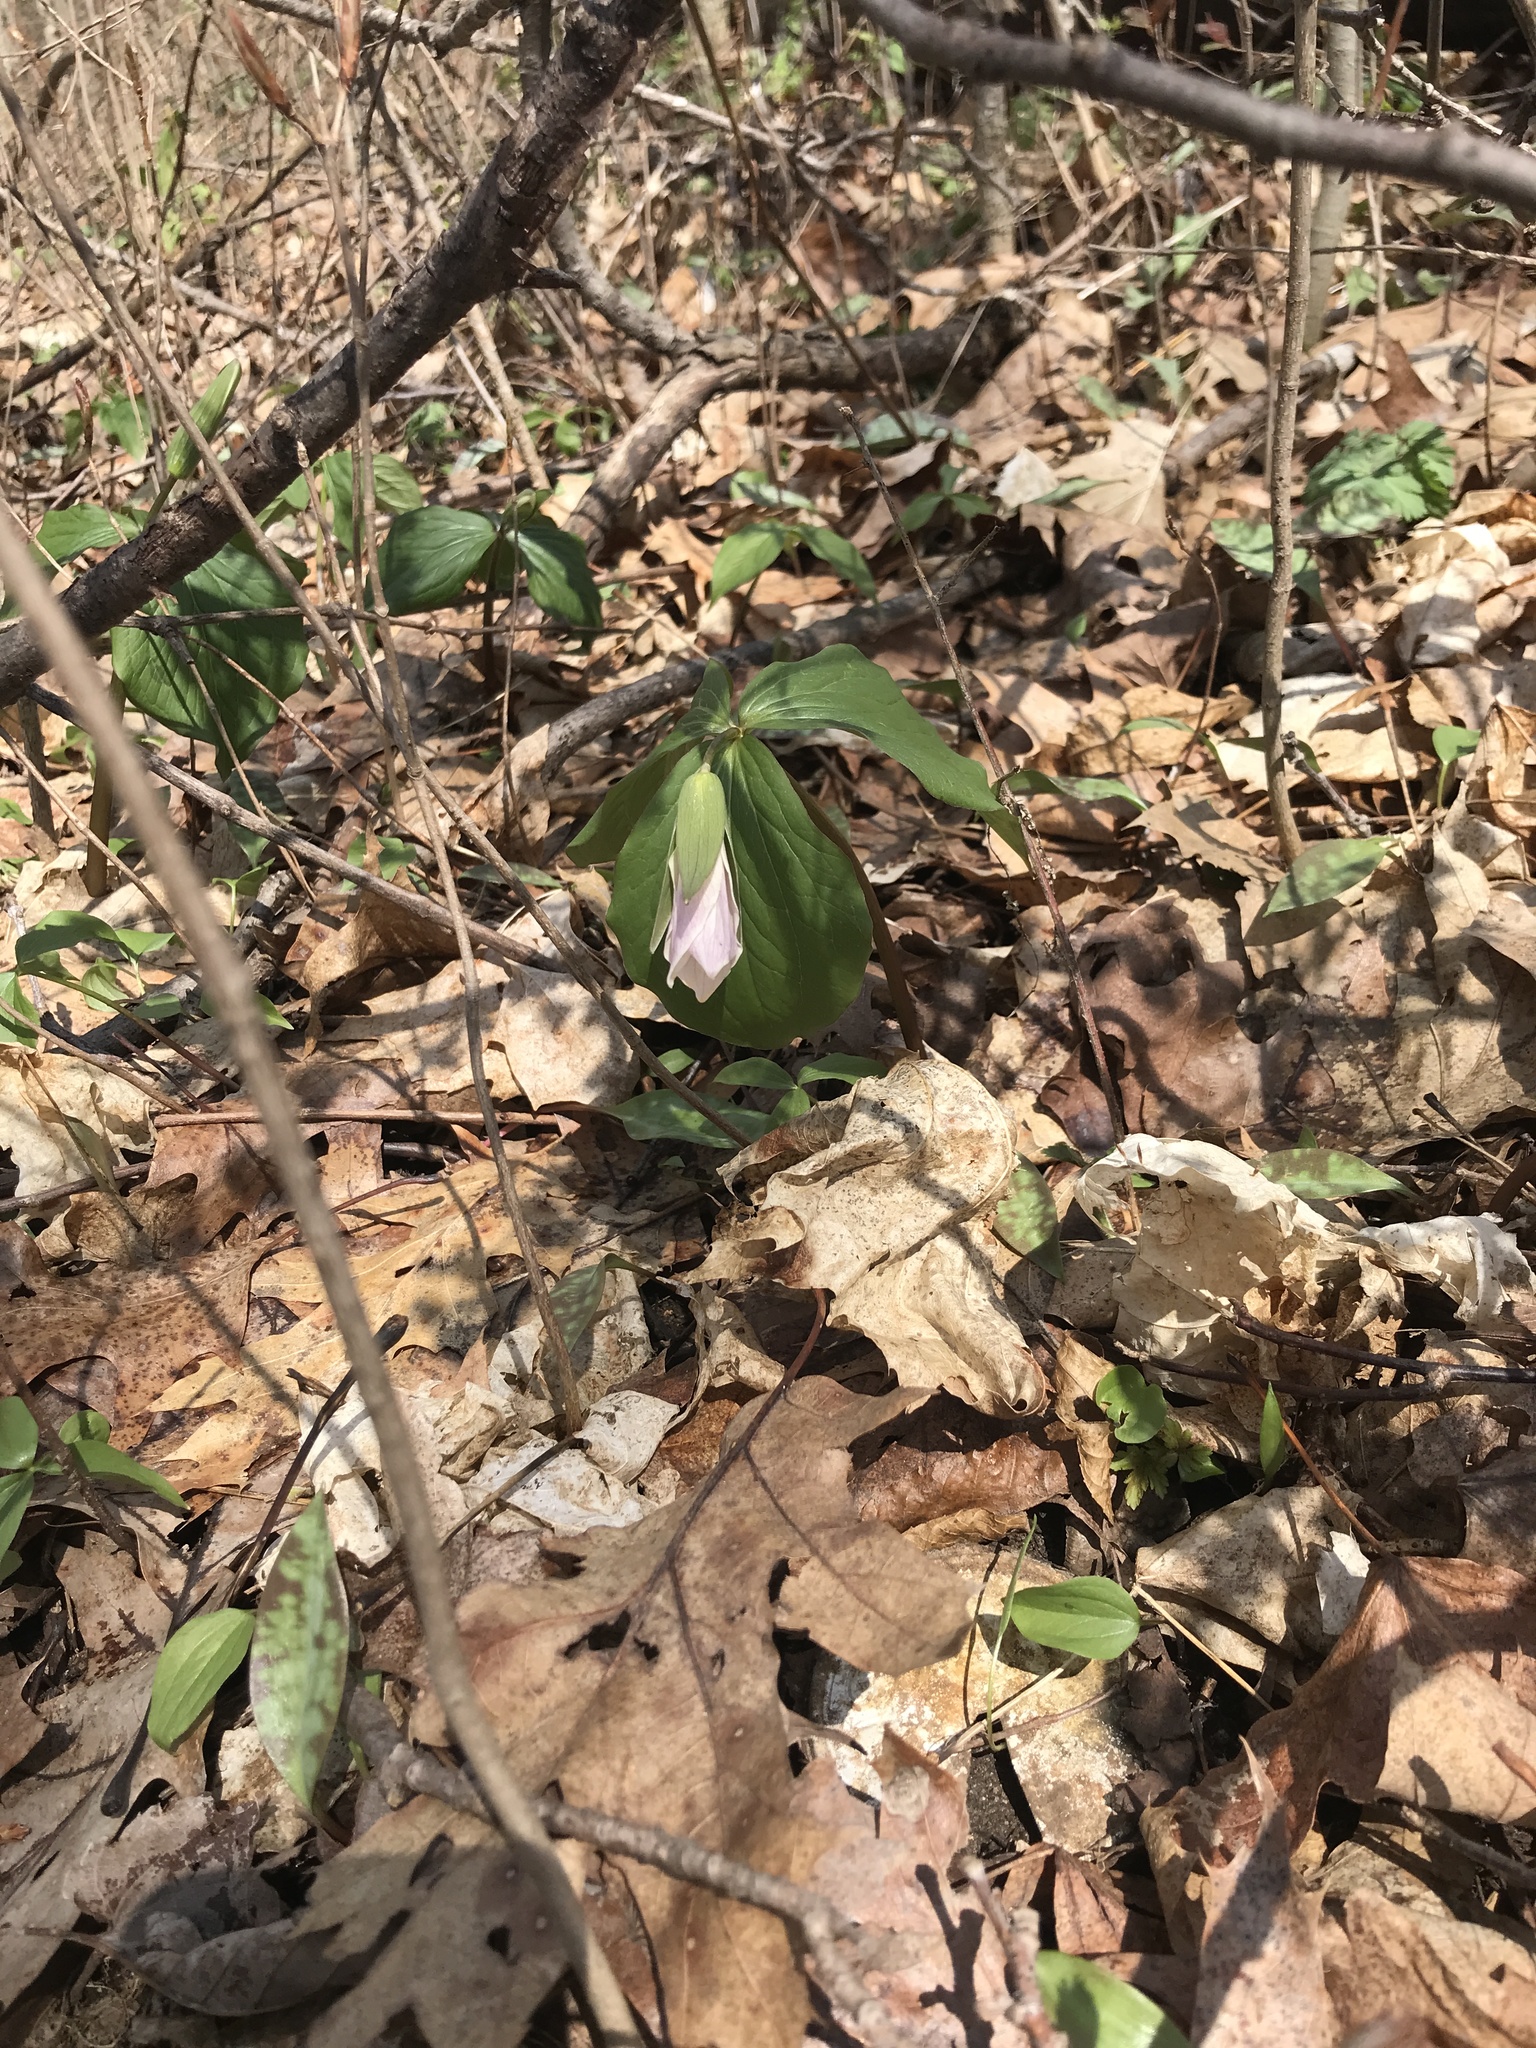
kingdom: Plantae
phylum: Tracheophyta
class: Liliopsida
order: Liliales
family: Melanthiaceae
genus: Trillium
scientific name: Trillium grandiflorum
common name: Great white trillium
